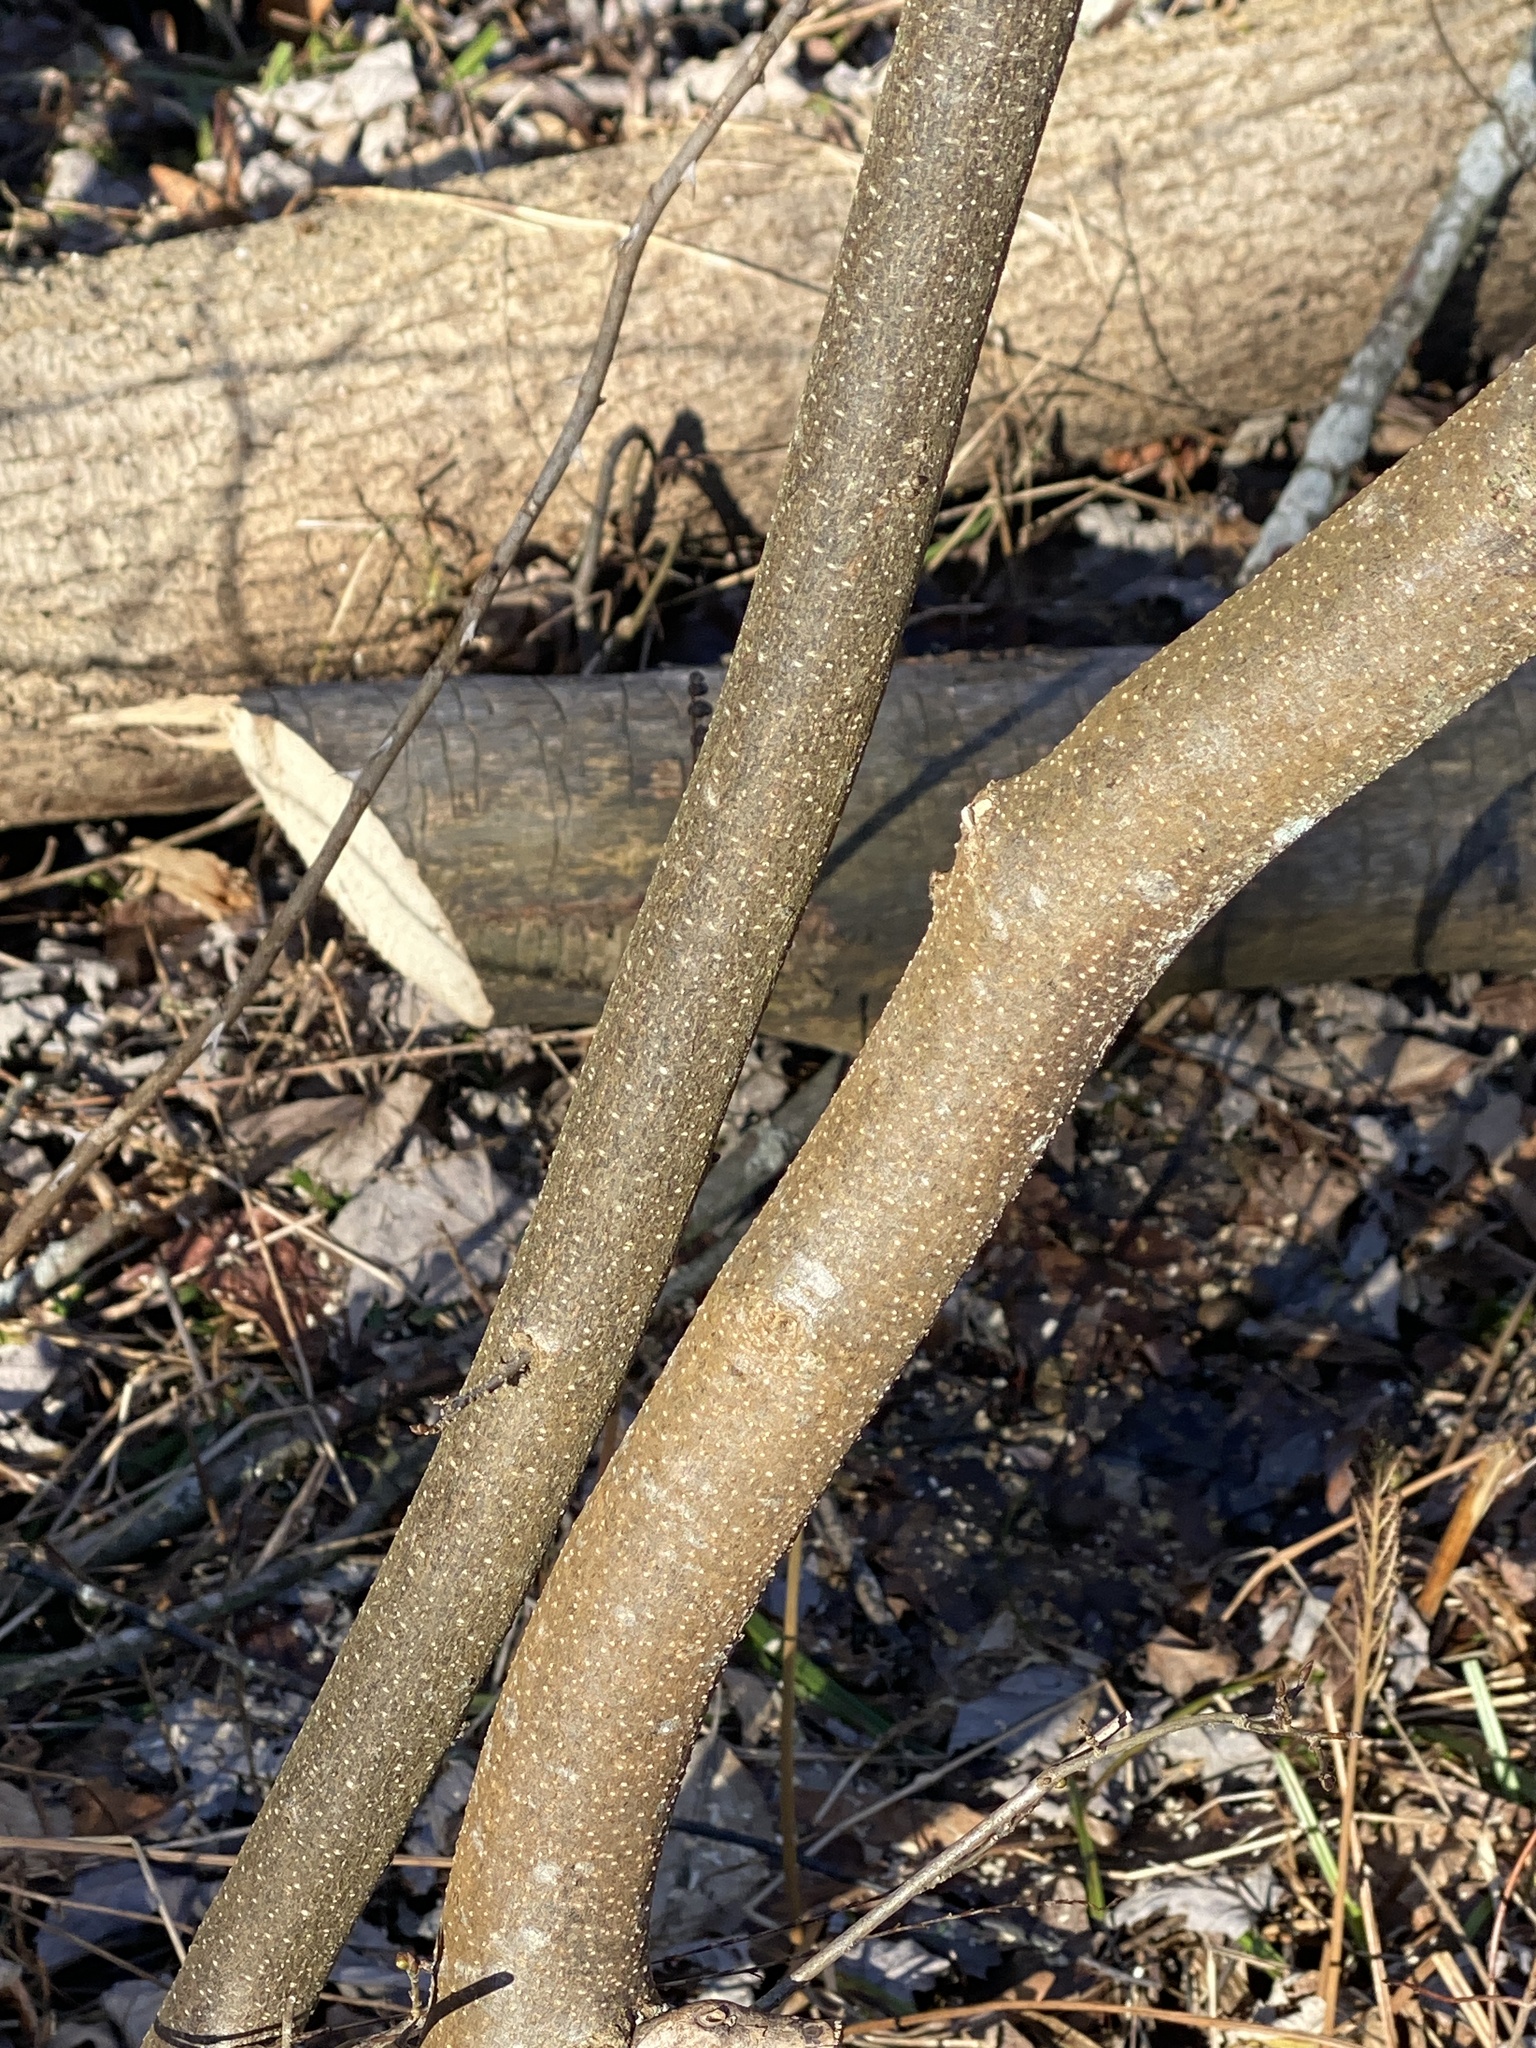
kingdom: Plantae
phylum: Tracheophyta
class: Magnoliopsida
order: Laurales
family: Lauraceae
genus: Lindera
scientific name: Lindera benzoin
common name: Spicebush
